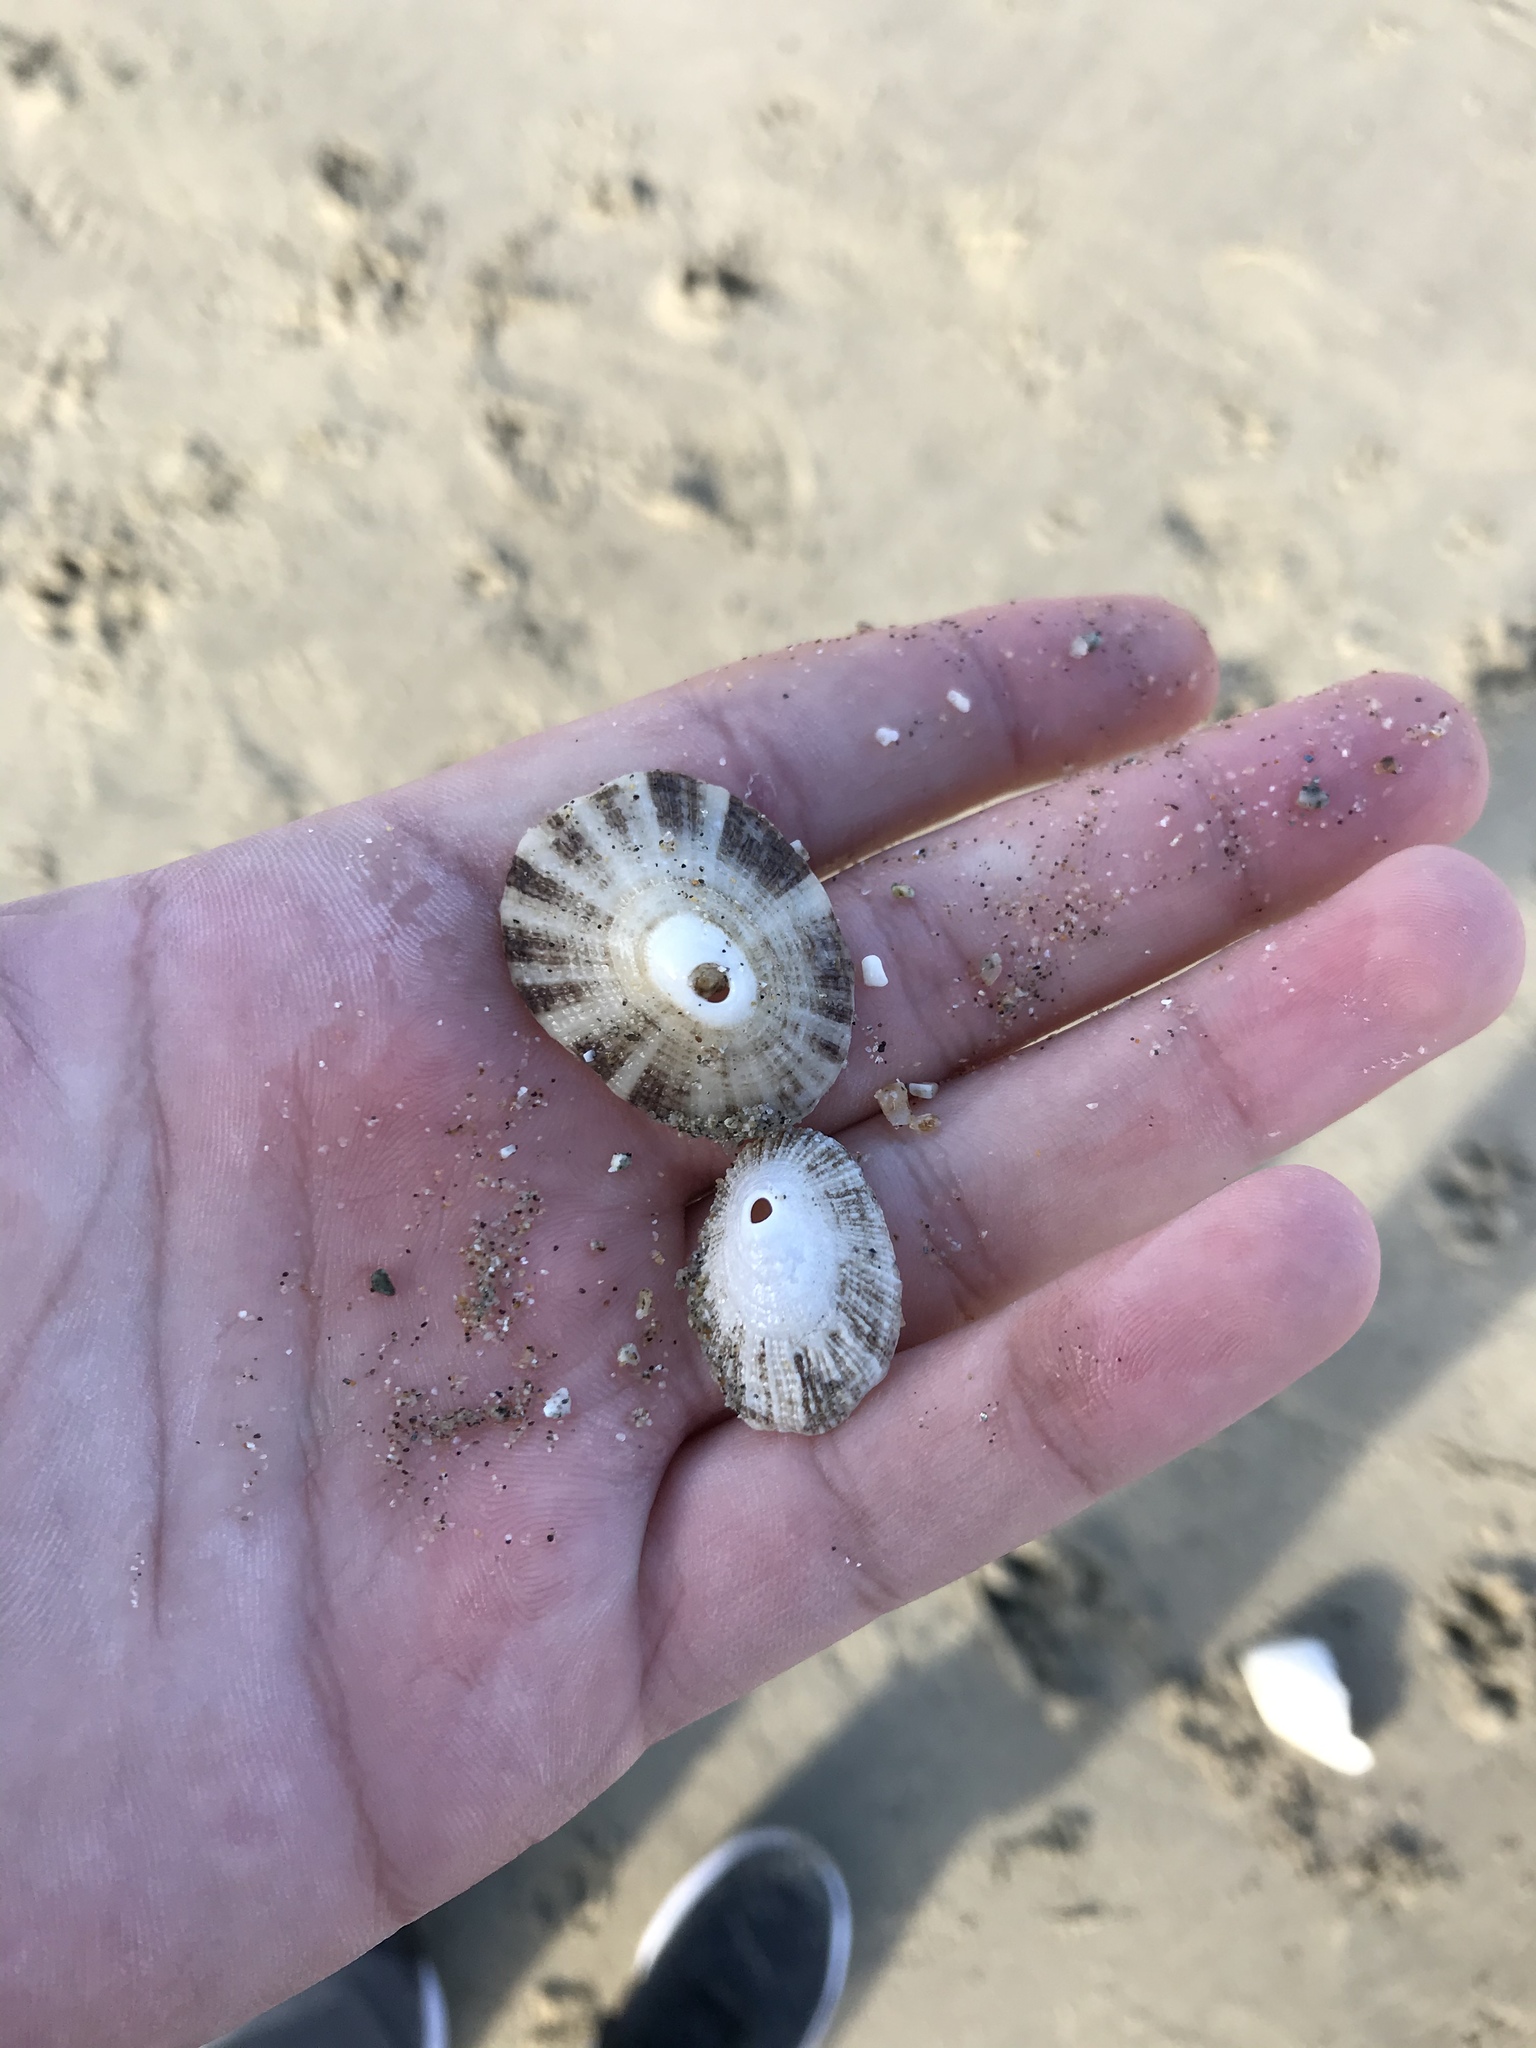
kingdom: Animalia
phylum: Mollusca
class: Gastropoda
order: Lepetellida
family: Fissurellidae
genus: Diodora
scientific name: Diodora aspera
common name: Rough keyhole limpet
